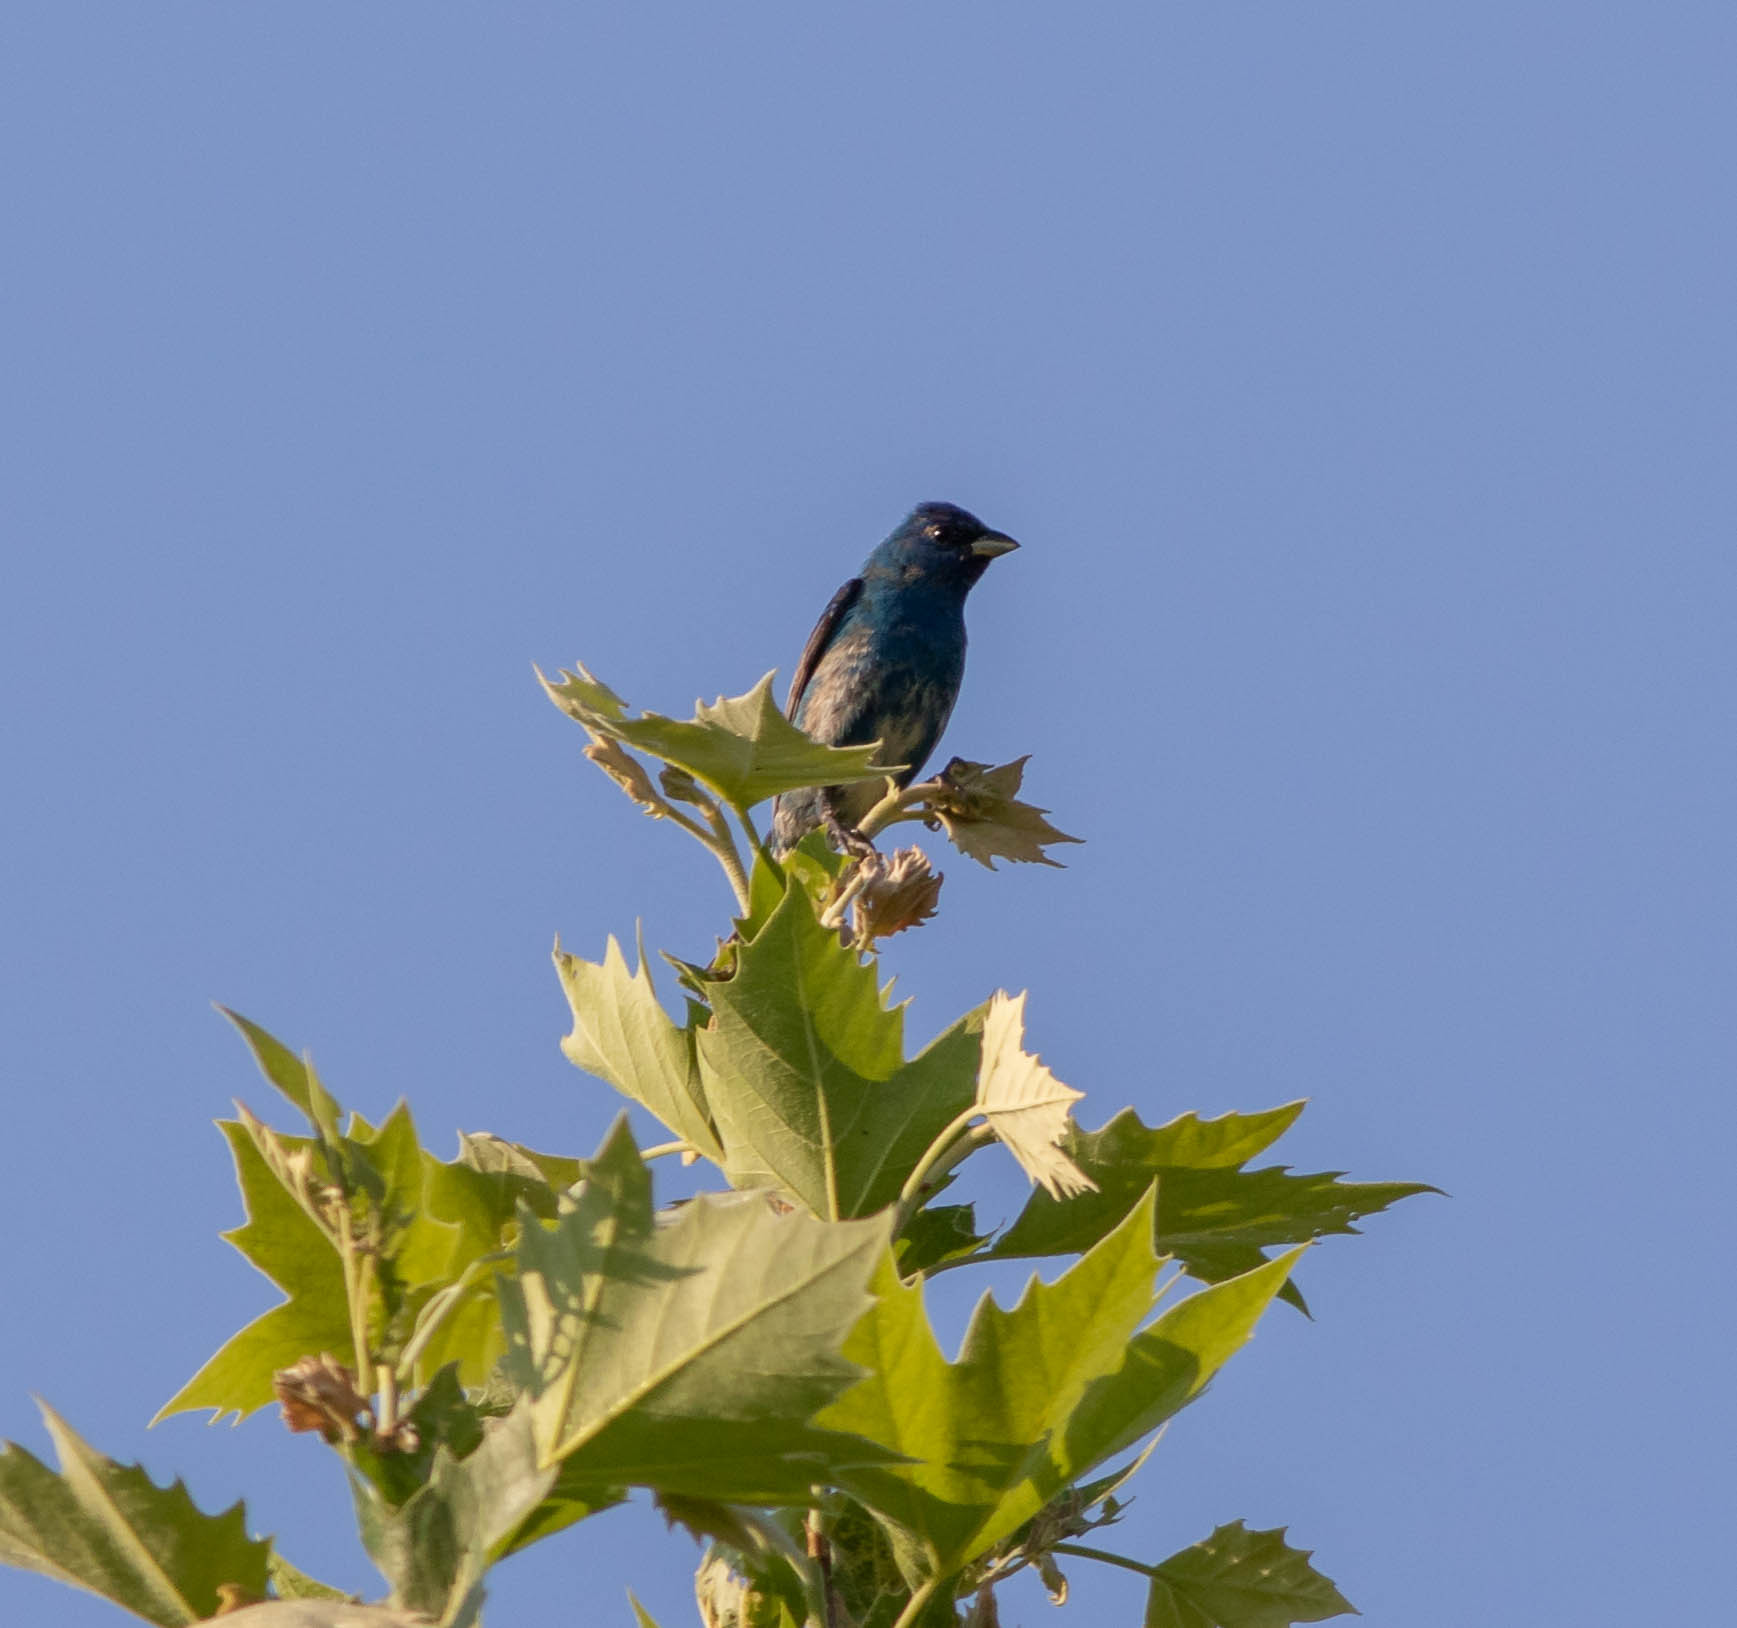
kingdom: Animalia
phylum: Chordata
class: Aves
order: Passeriformes
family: Cardinalidae
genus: Passerina
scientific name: Passerina cyanea
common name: Indigo bunting
